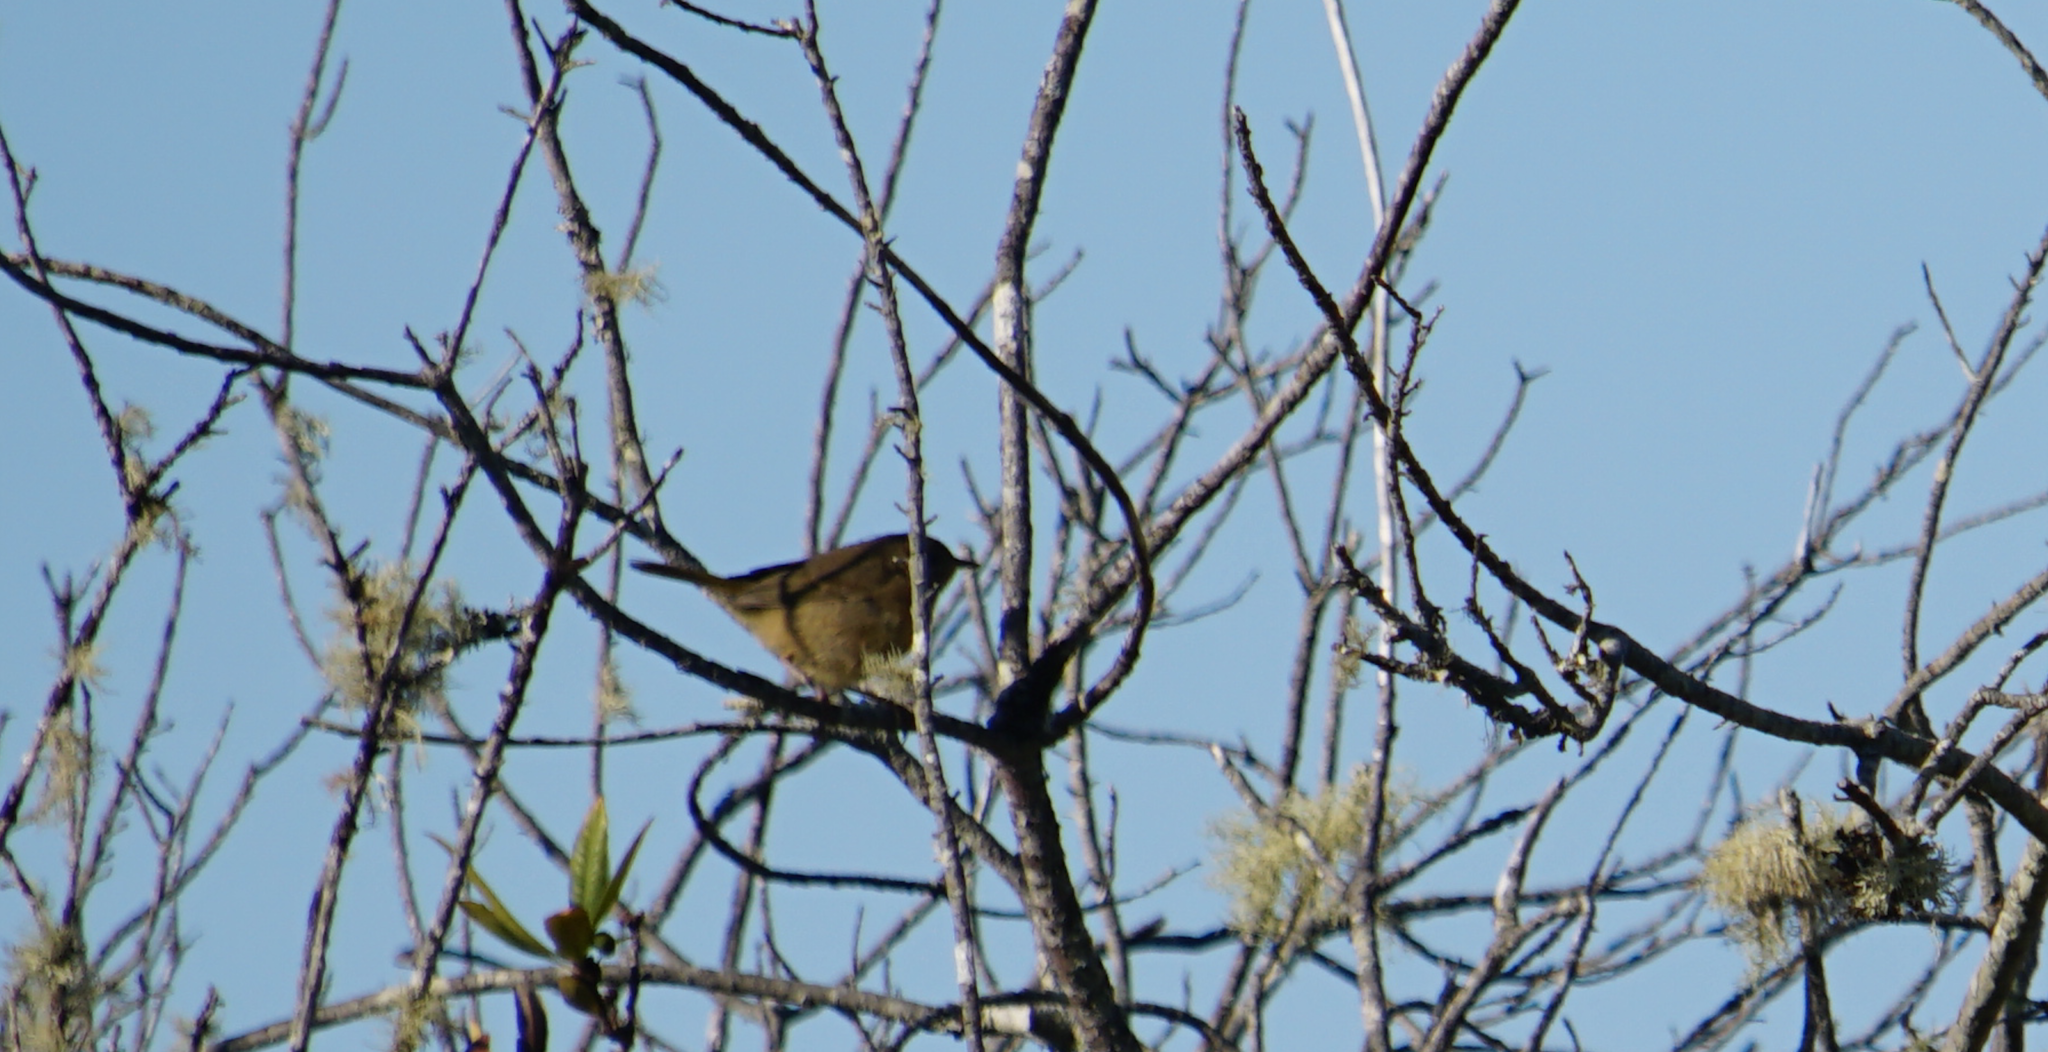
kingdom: Animalia
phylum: Chordata
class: Aves
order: Passeriformes
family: Sylviidae
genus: Chamaea
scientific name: Chamaea fasciata
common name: Wrentit
